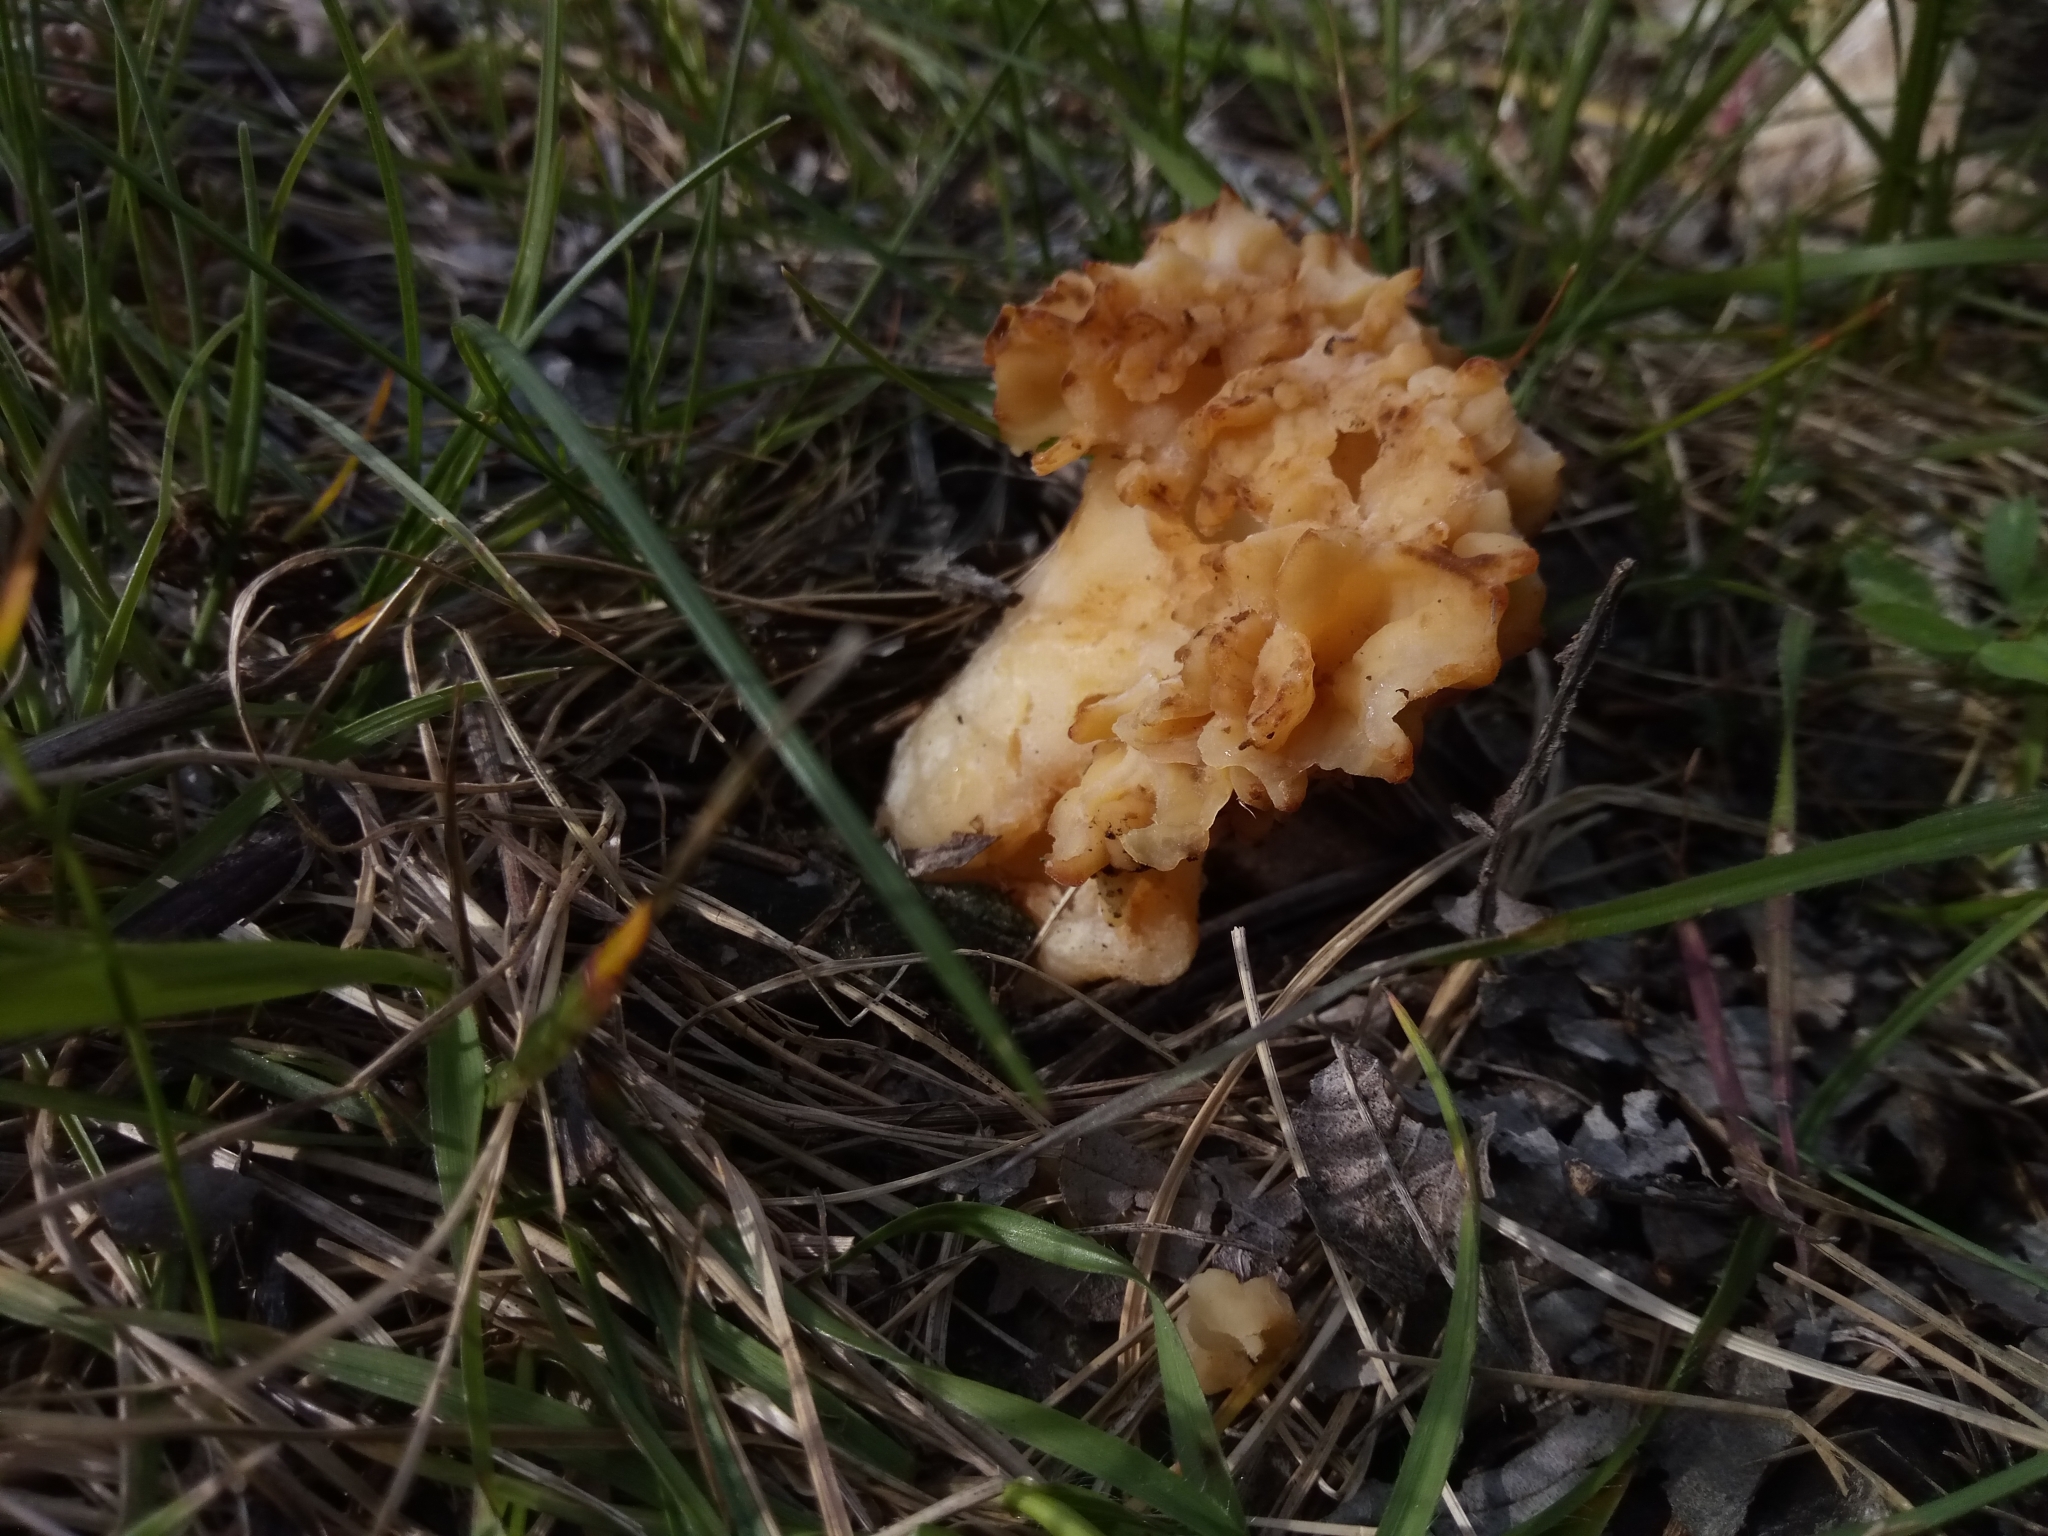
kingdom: Fungi
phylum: Basidiomycota
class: Agaricomycetes
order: Polyporales
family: Sparassidaceae
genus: Sparassis
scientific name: Sparassis crispa
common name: Brain fungus
